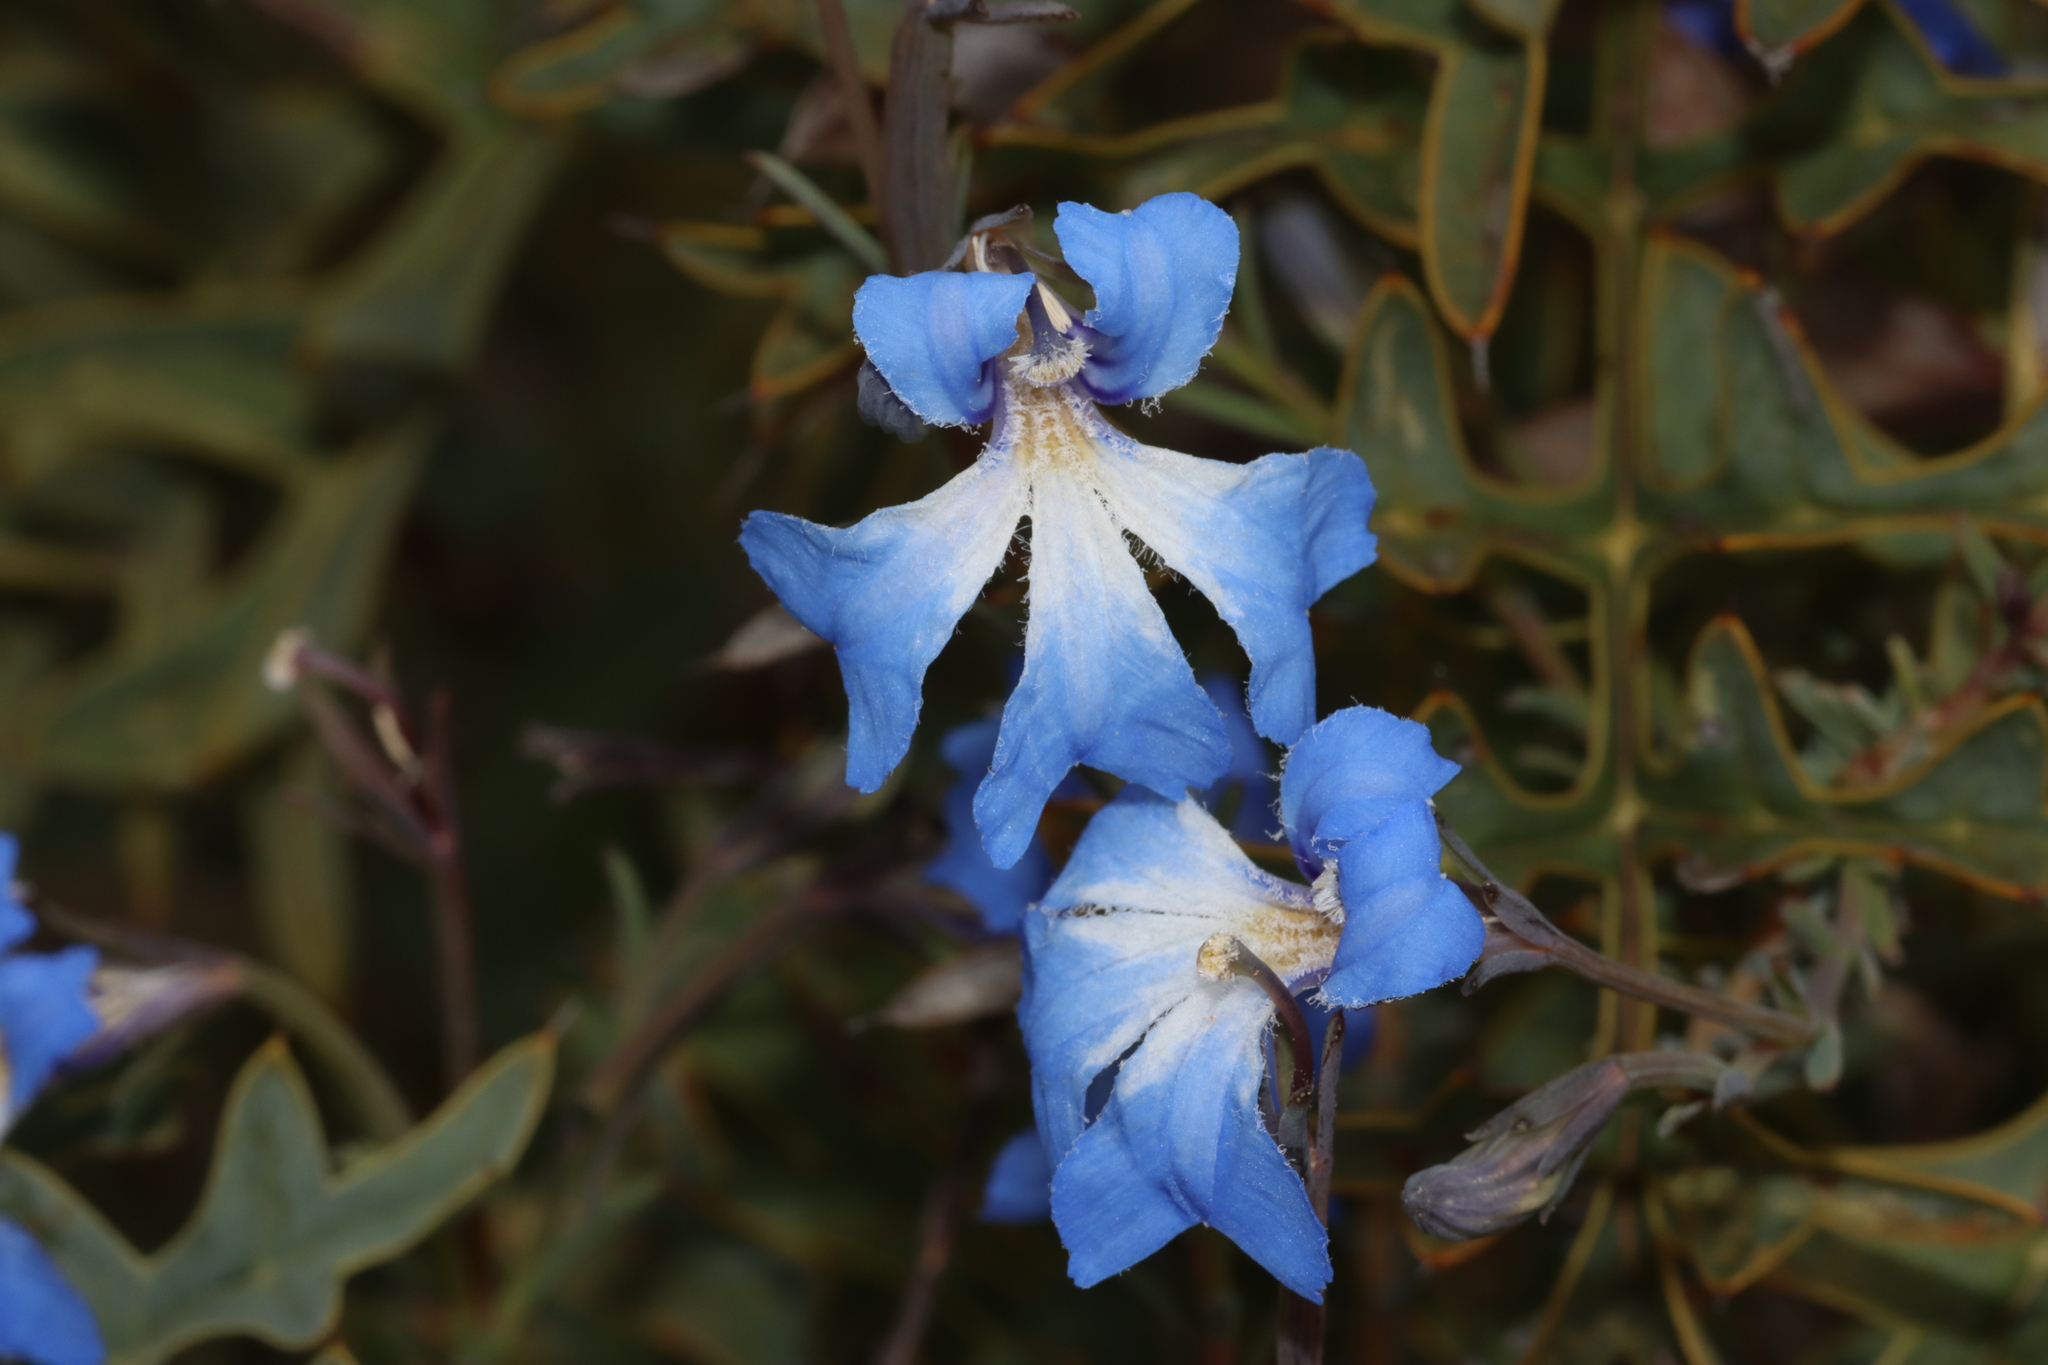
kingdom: Plantae
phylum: Tracheophyta
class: Magnoliopsida
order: Asterales
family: Goodeniaceae
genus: Lechenaultia
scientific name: Lechenaultia biloba
